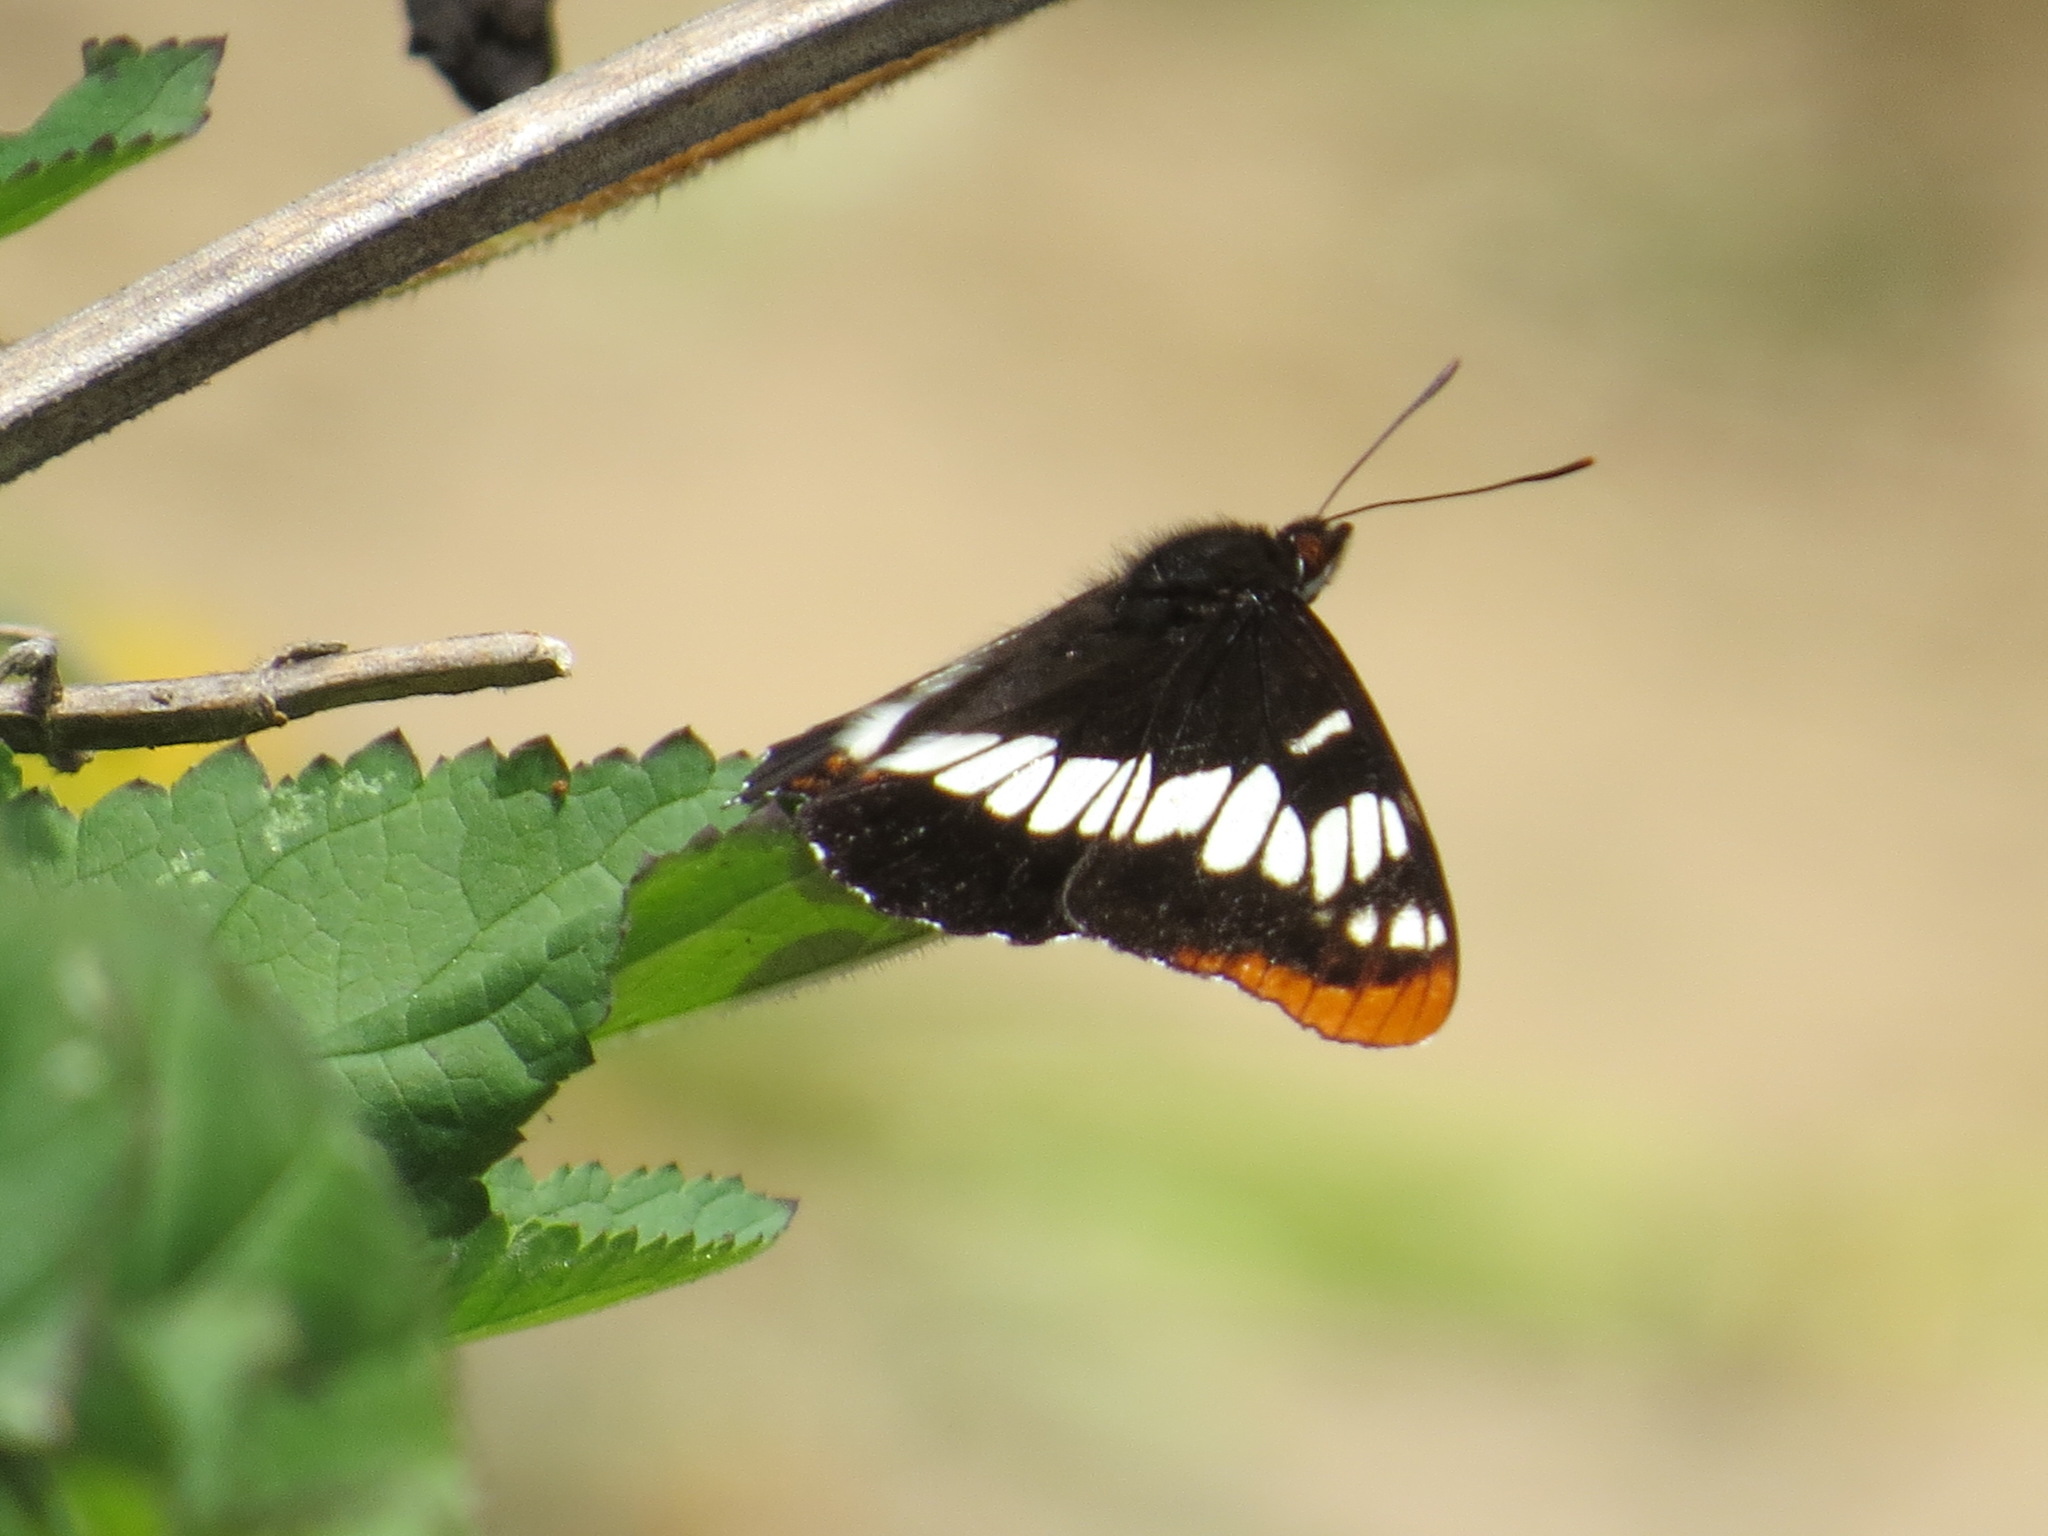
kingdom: Animalia
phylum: Arthropoda
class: Insecta
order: Lepidoptera
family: Nymphalidae
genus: Limenitis
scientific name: Limenitis lorquini
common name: Lorquin's admiral
